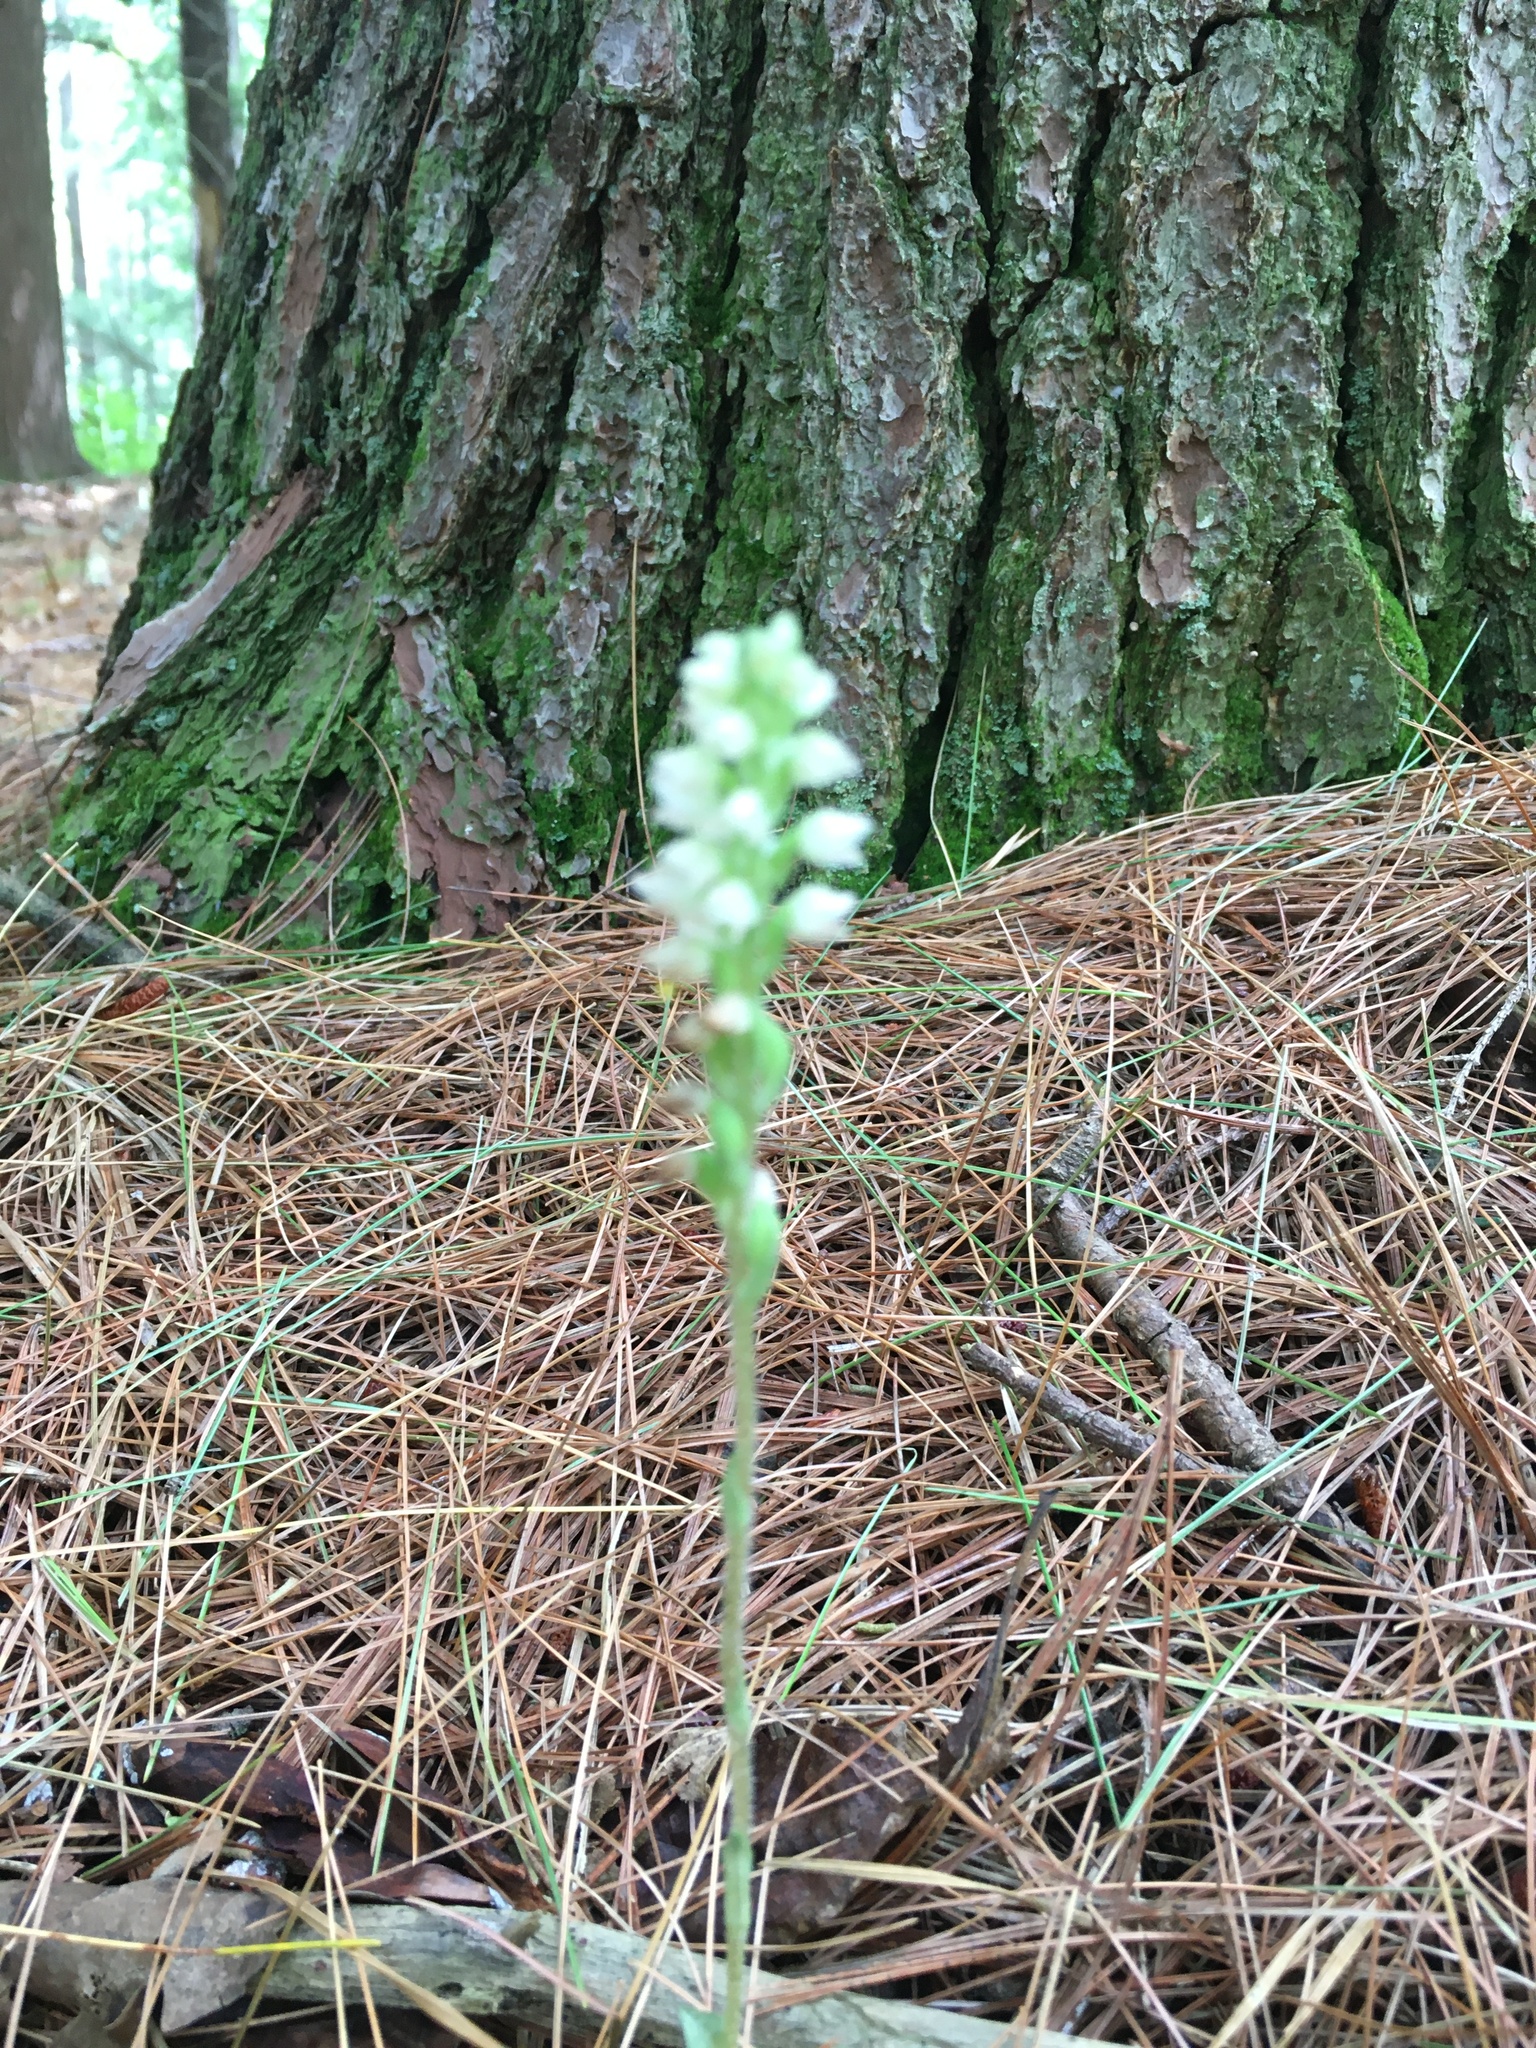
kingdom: Plantae
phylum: Tracheophyta
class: Liliopsida
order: Asparagales
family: Orchidaceae
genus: Goodyera
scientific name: Goodyera tesselata
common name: Checkered rattlesnake-plantain
